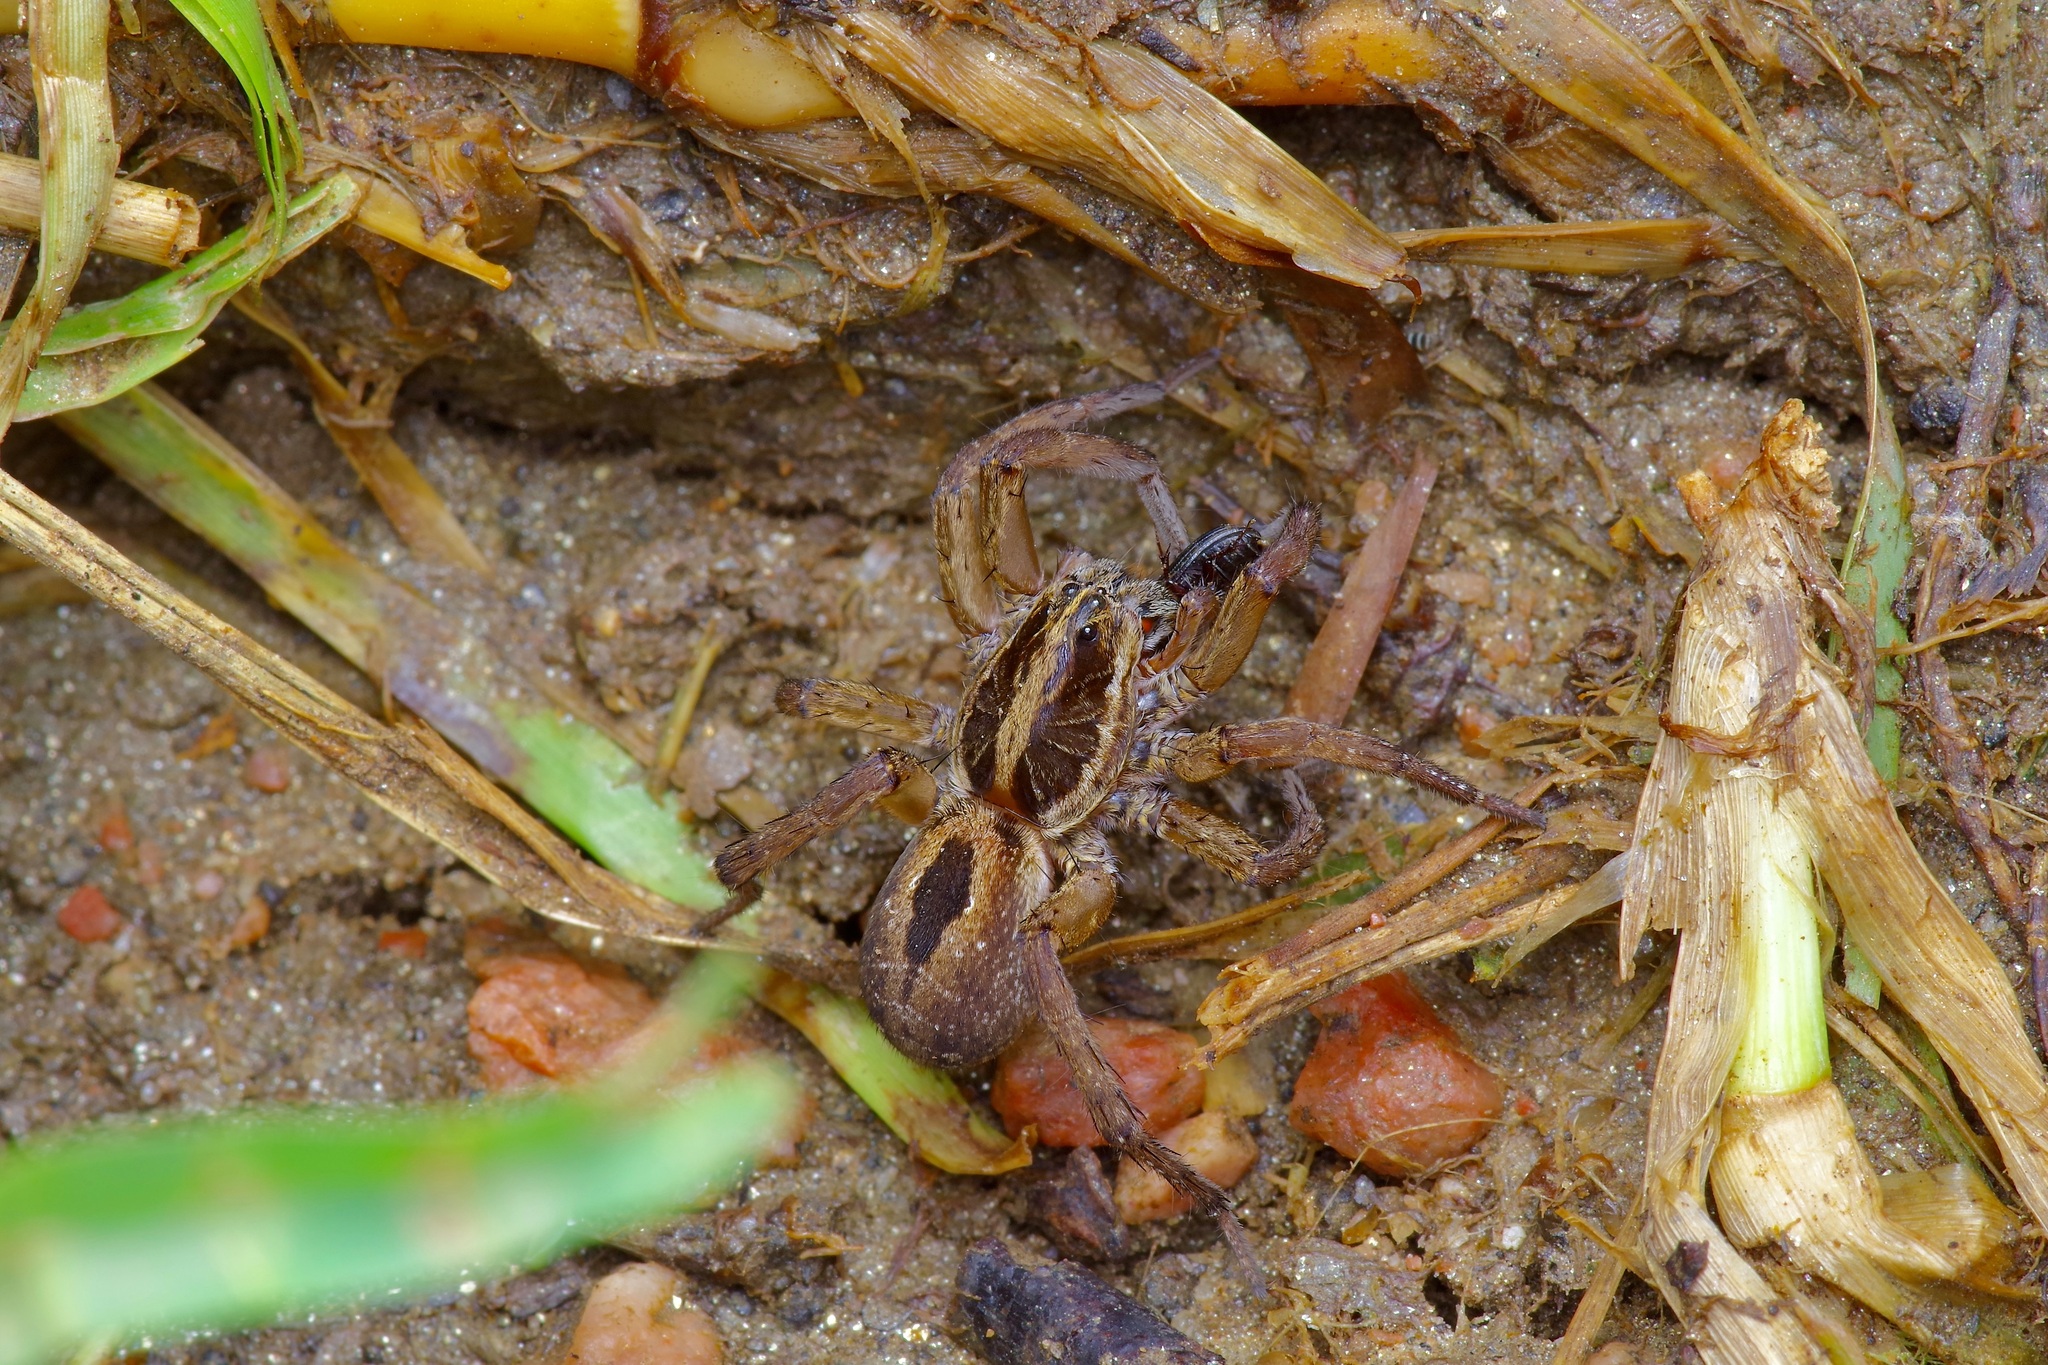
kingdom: Animalia
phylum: Arthropoda
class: Arachnida
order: Araneae
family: Lycosidae
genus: Tigrosa
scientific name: Tigrosa annexa
